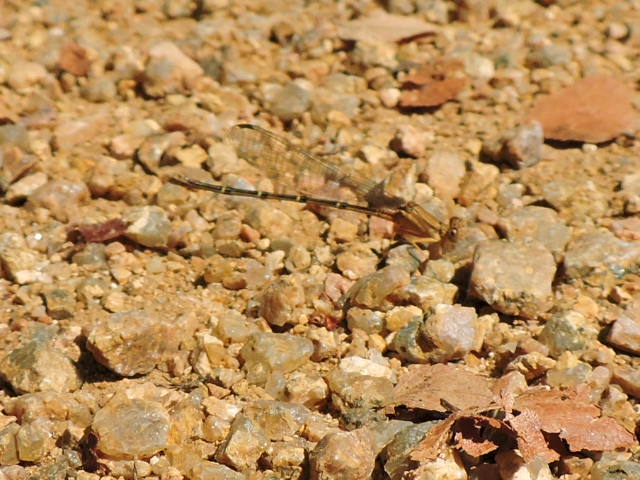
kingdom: Animalia
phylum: Arthropoda
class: Insecta
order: Odonata
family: Coenagrionidae
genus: Argia
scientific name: Argia moesta
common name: Powdered dancer
